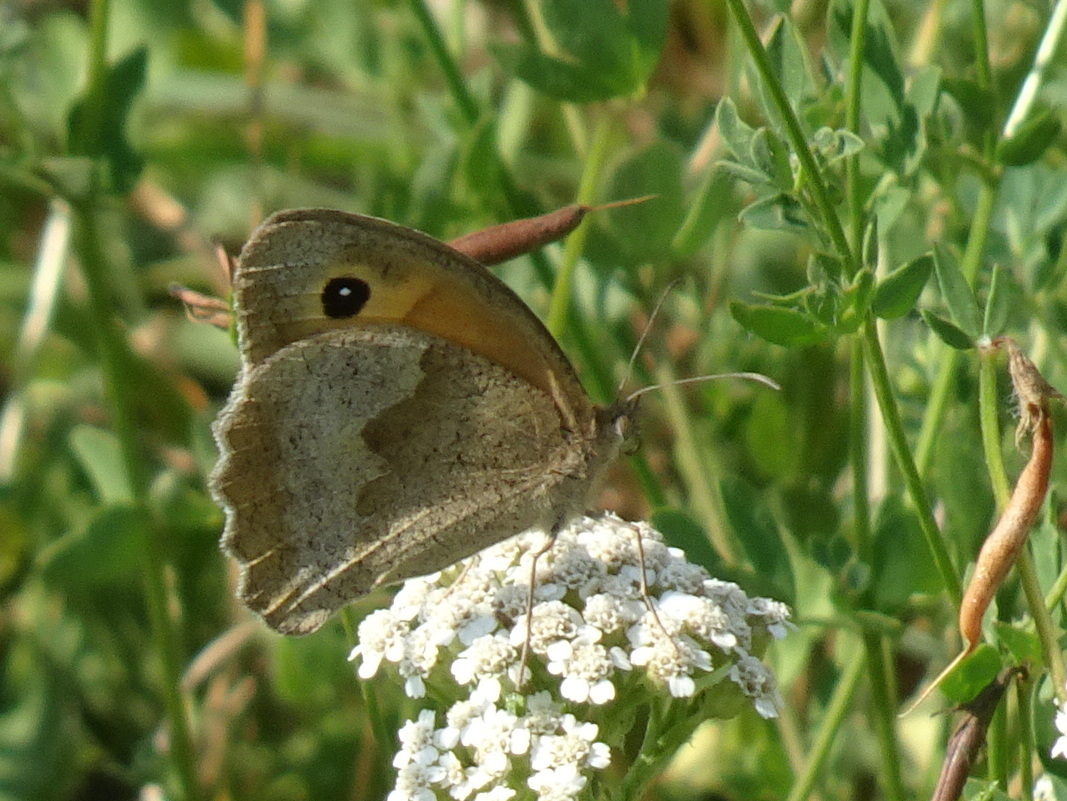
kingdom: Animalia
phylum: Arthropoda
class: Insecta
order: Lepidoptera
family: Nymphalidae
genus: Maniola
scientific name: Maniola jurtina
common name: Meadow brown
